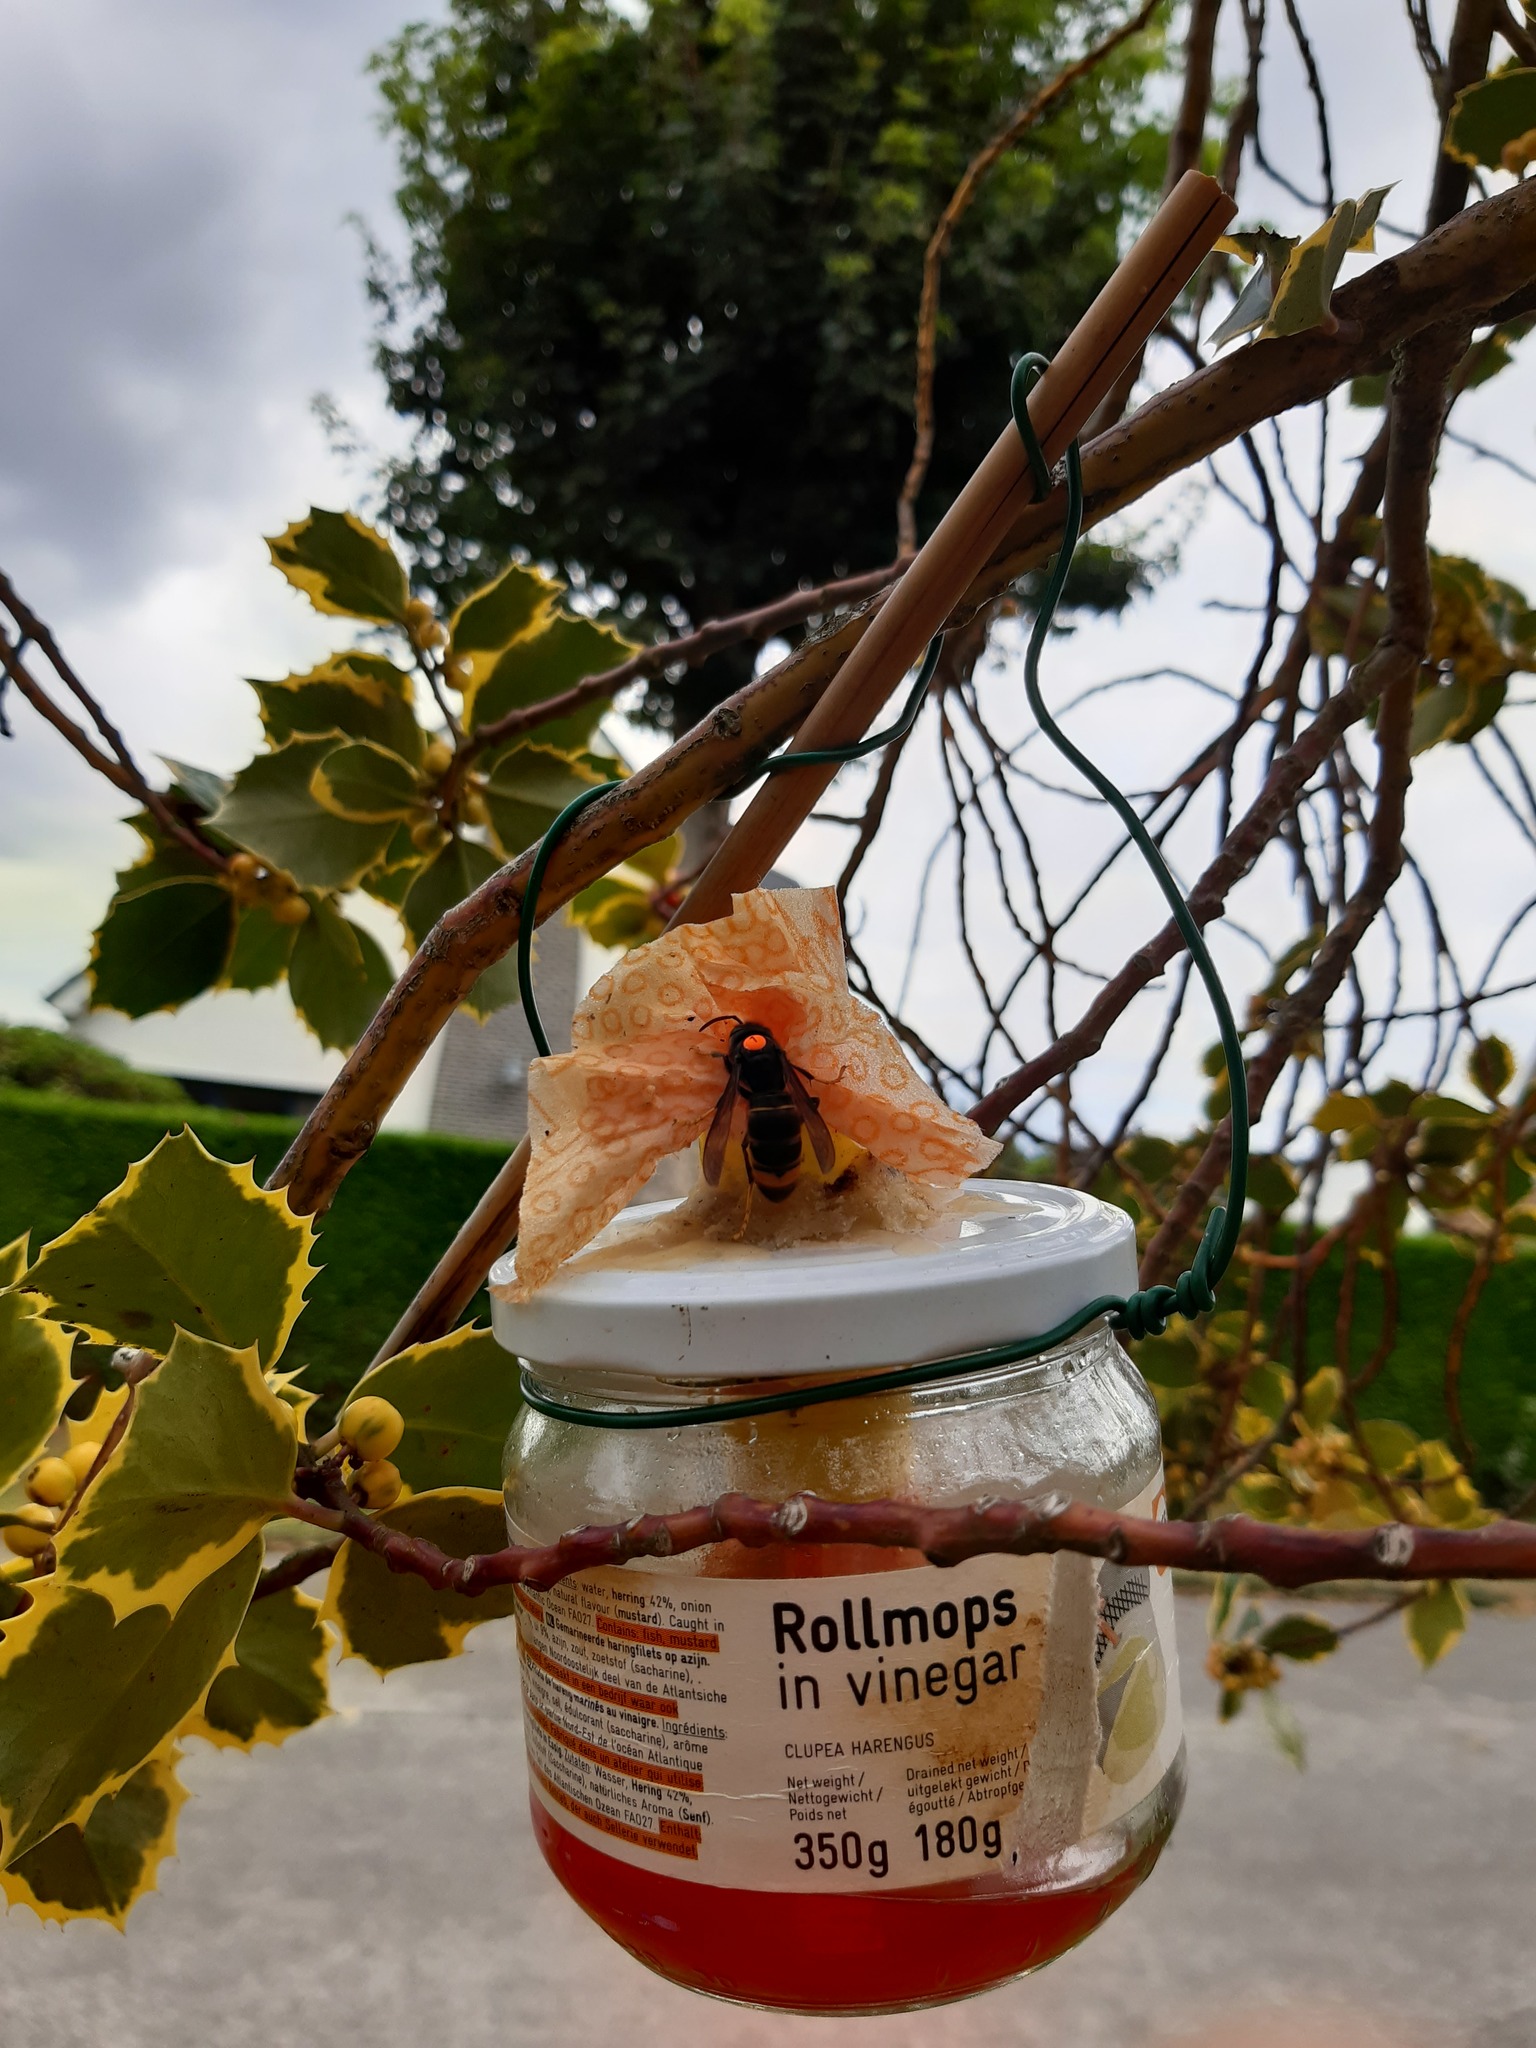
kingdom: Animalia
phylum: Arthropoda
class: Insecta
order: Hymenoptera
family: Vespidae
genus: Vespa
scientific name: Vespa velutina
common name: Asian hornet
